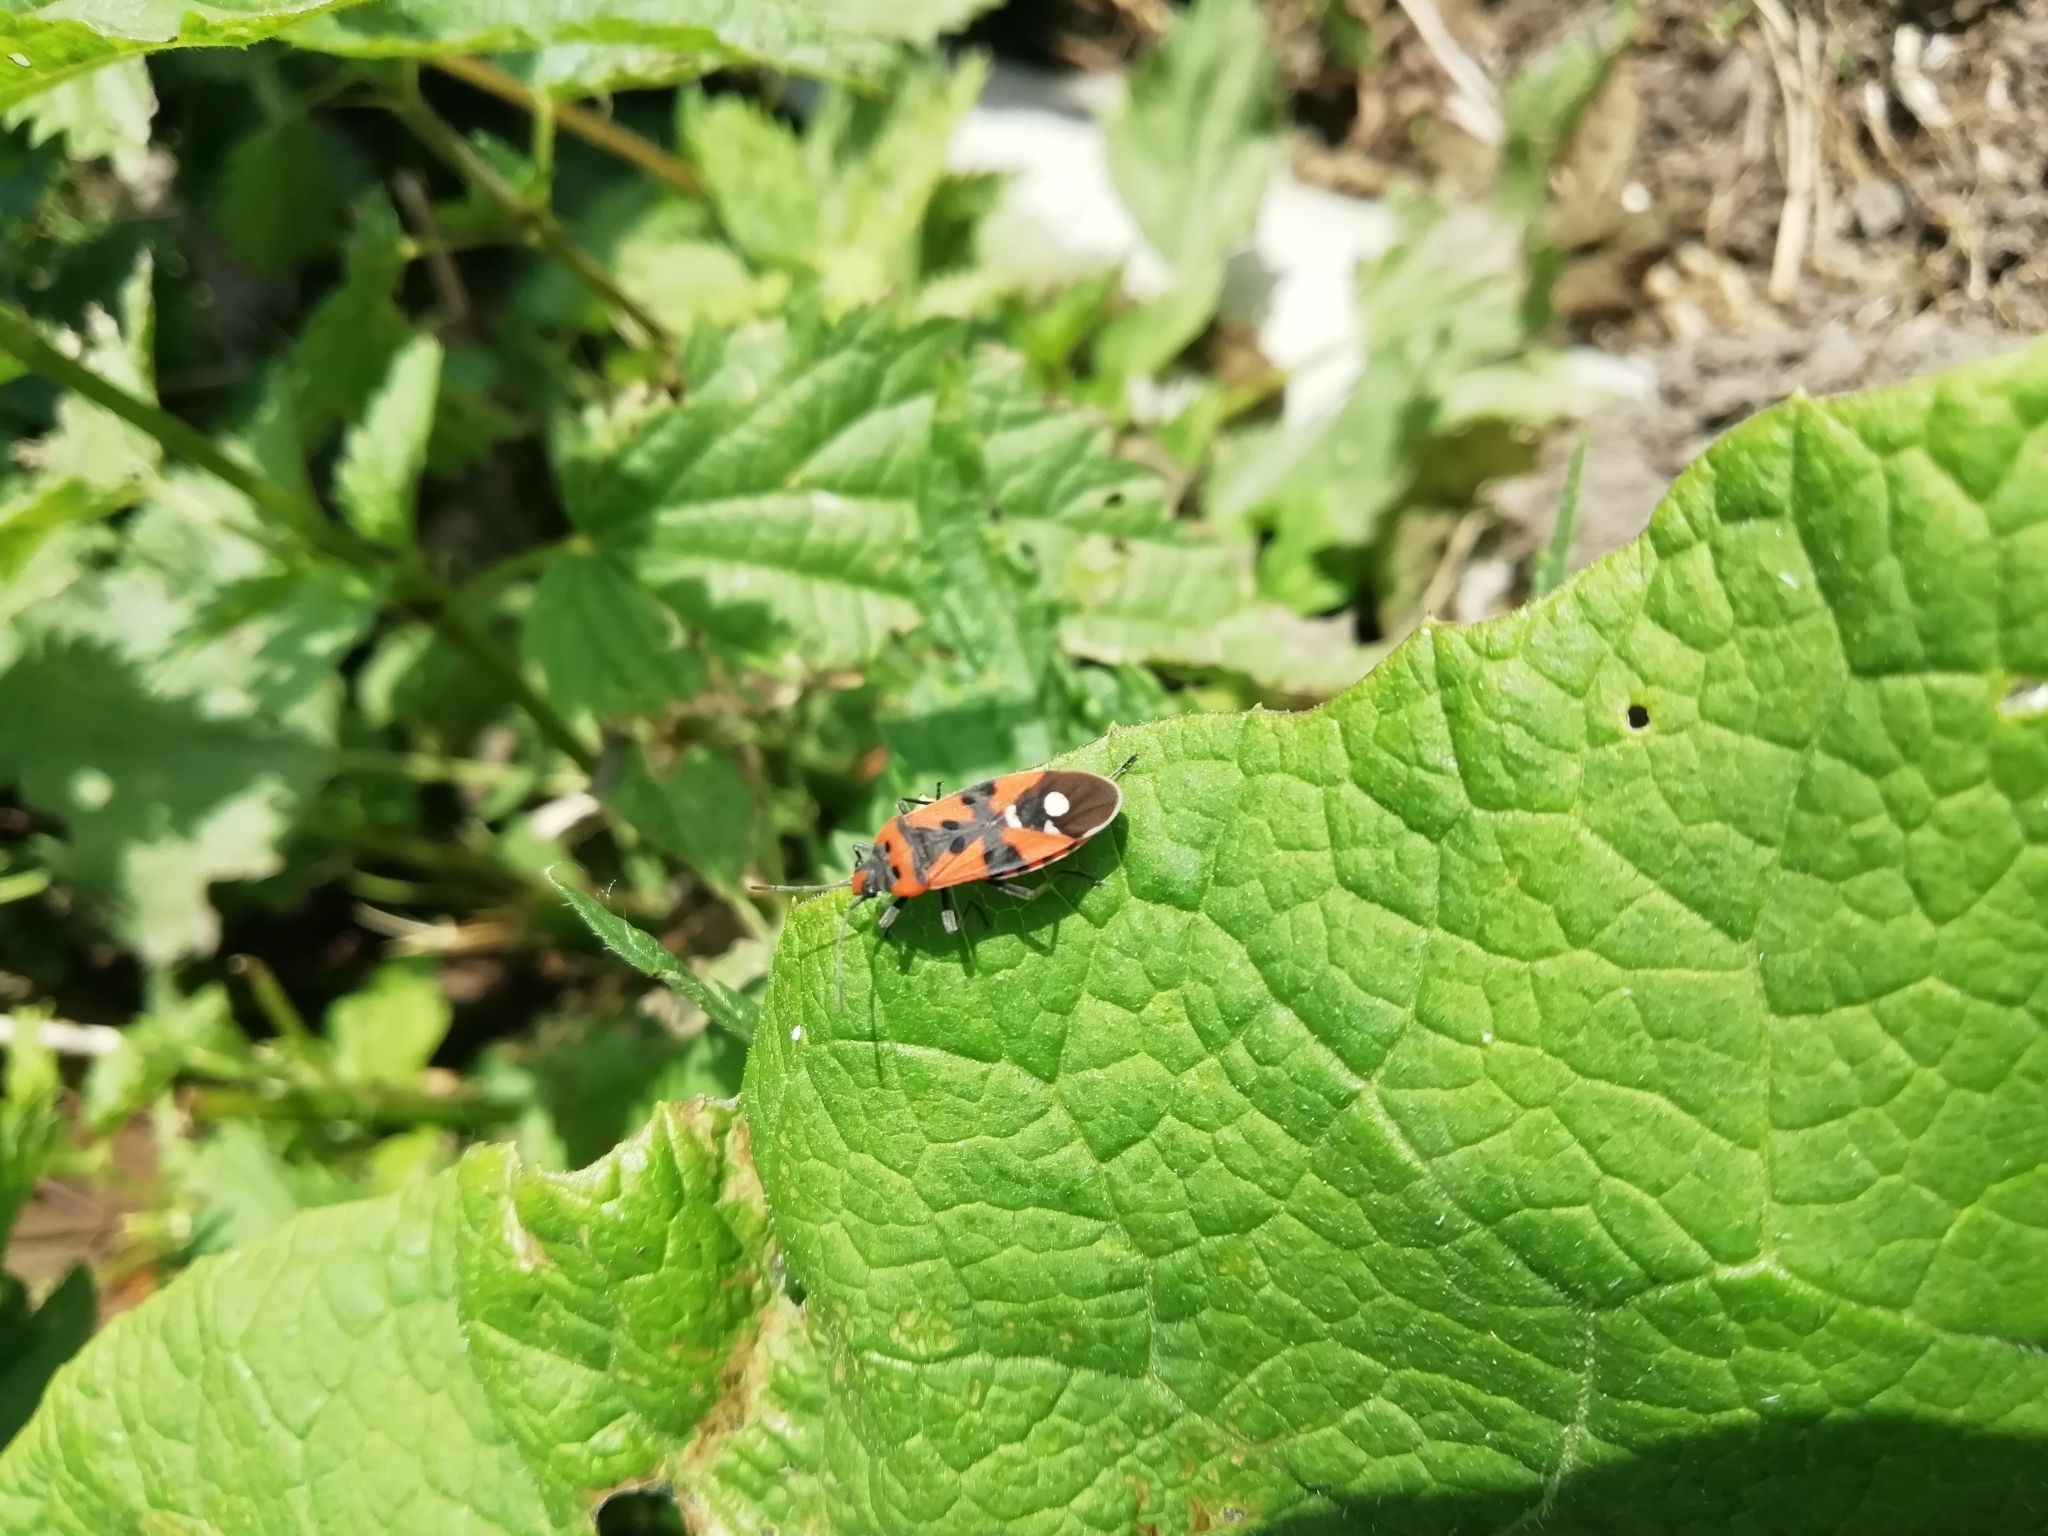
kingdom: Animalia
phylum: Arthropoda
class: Insecta
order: Hemiptera
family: Lygaeidae
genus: Lygaeus
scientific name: Lygaeus equestris
